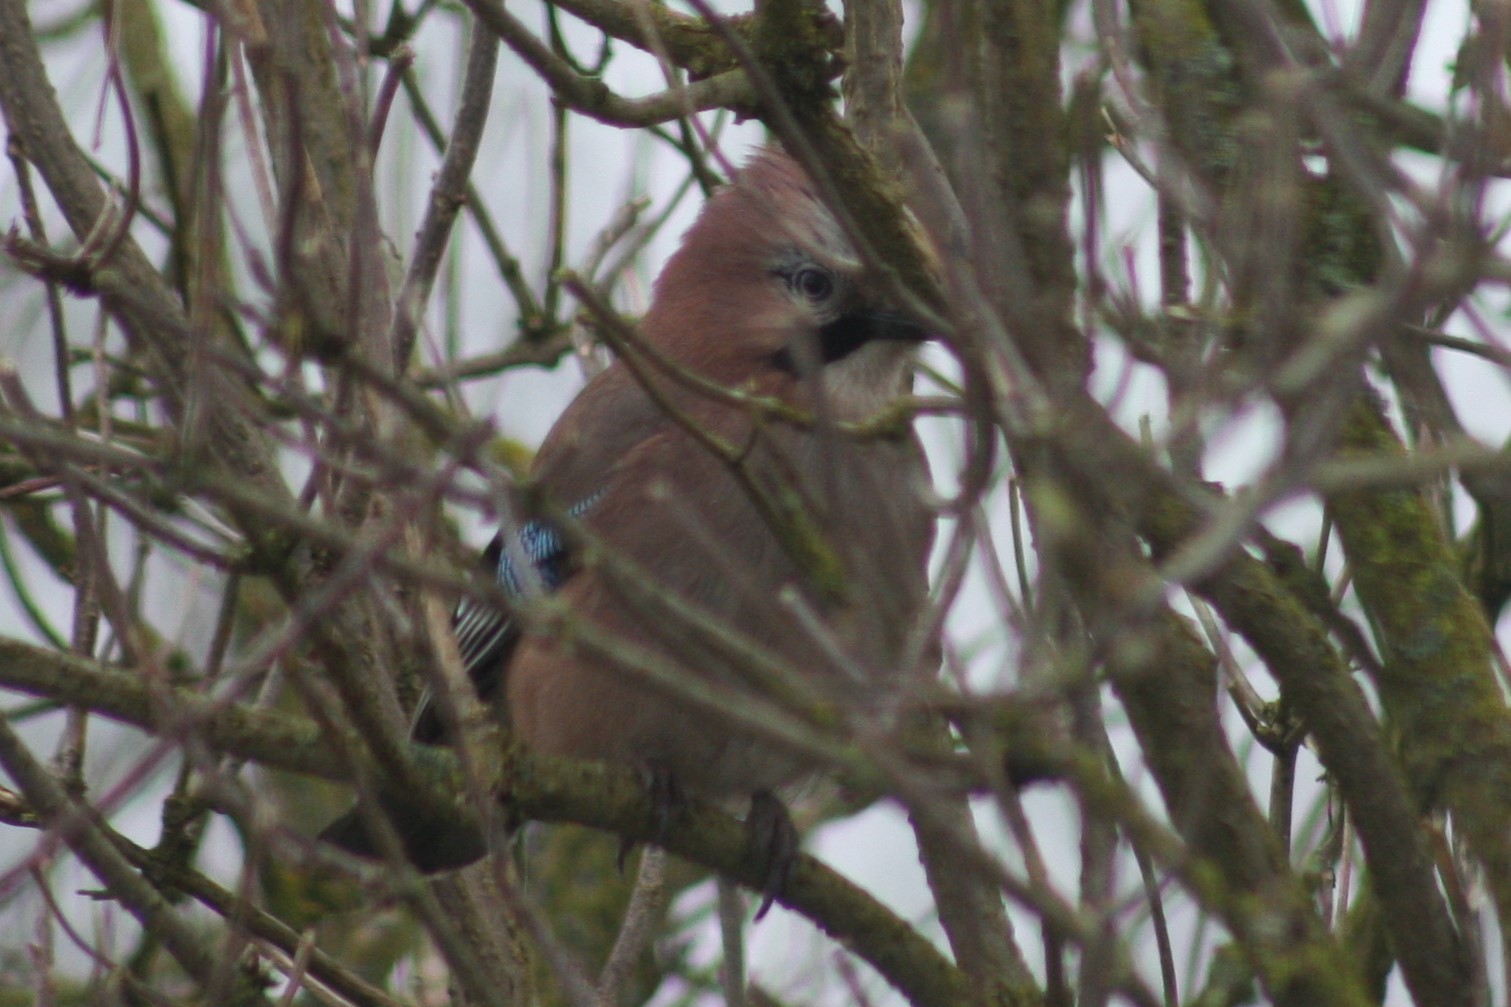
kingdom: Animalia
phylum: Chordata
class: Aves
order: Passeriformes
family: Corvidae
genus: Garrulus
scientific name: Garrulus glandarius
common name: Eurasian jay
